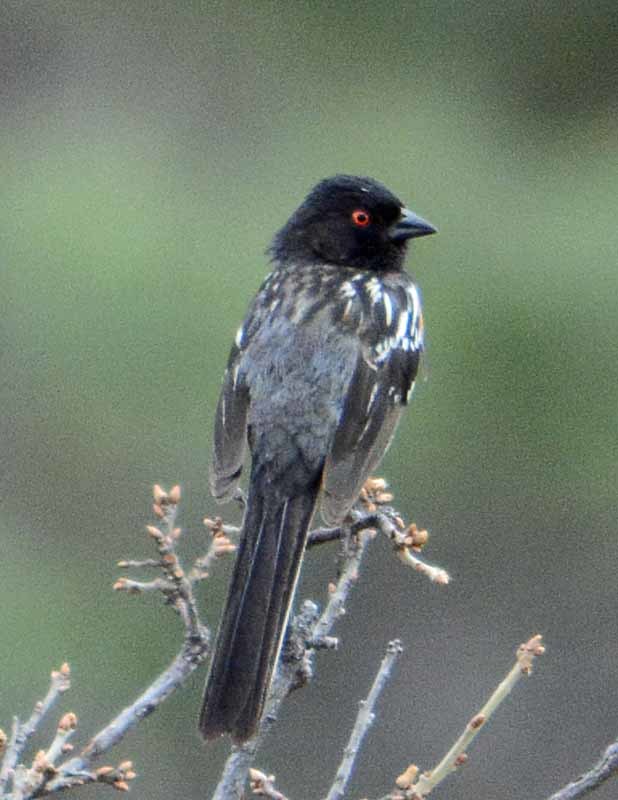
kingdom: Animalia
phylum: Chordata
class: Aves
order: Passeriformes
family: Passerellidae
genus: Pipilo
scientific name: Pipilo maculatus
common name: Spotted towhee
